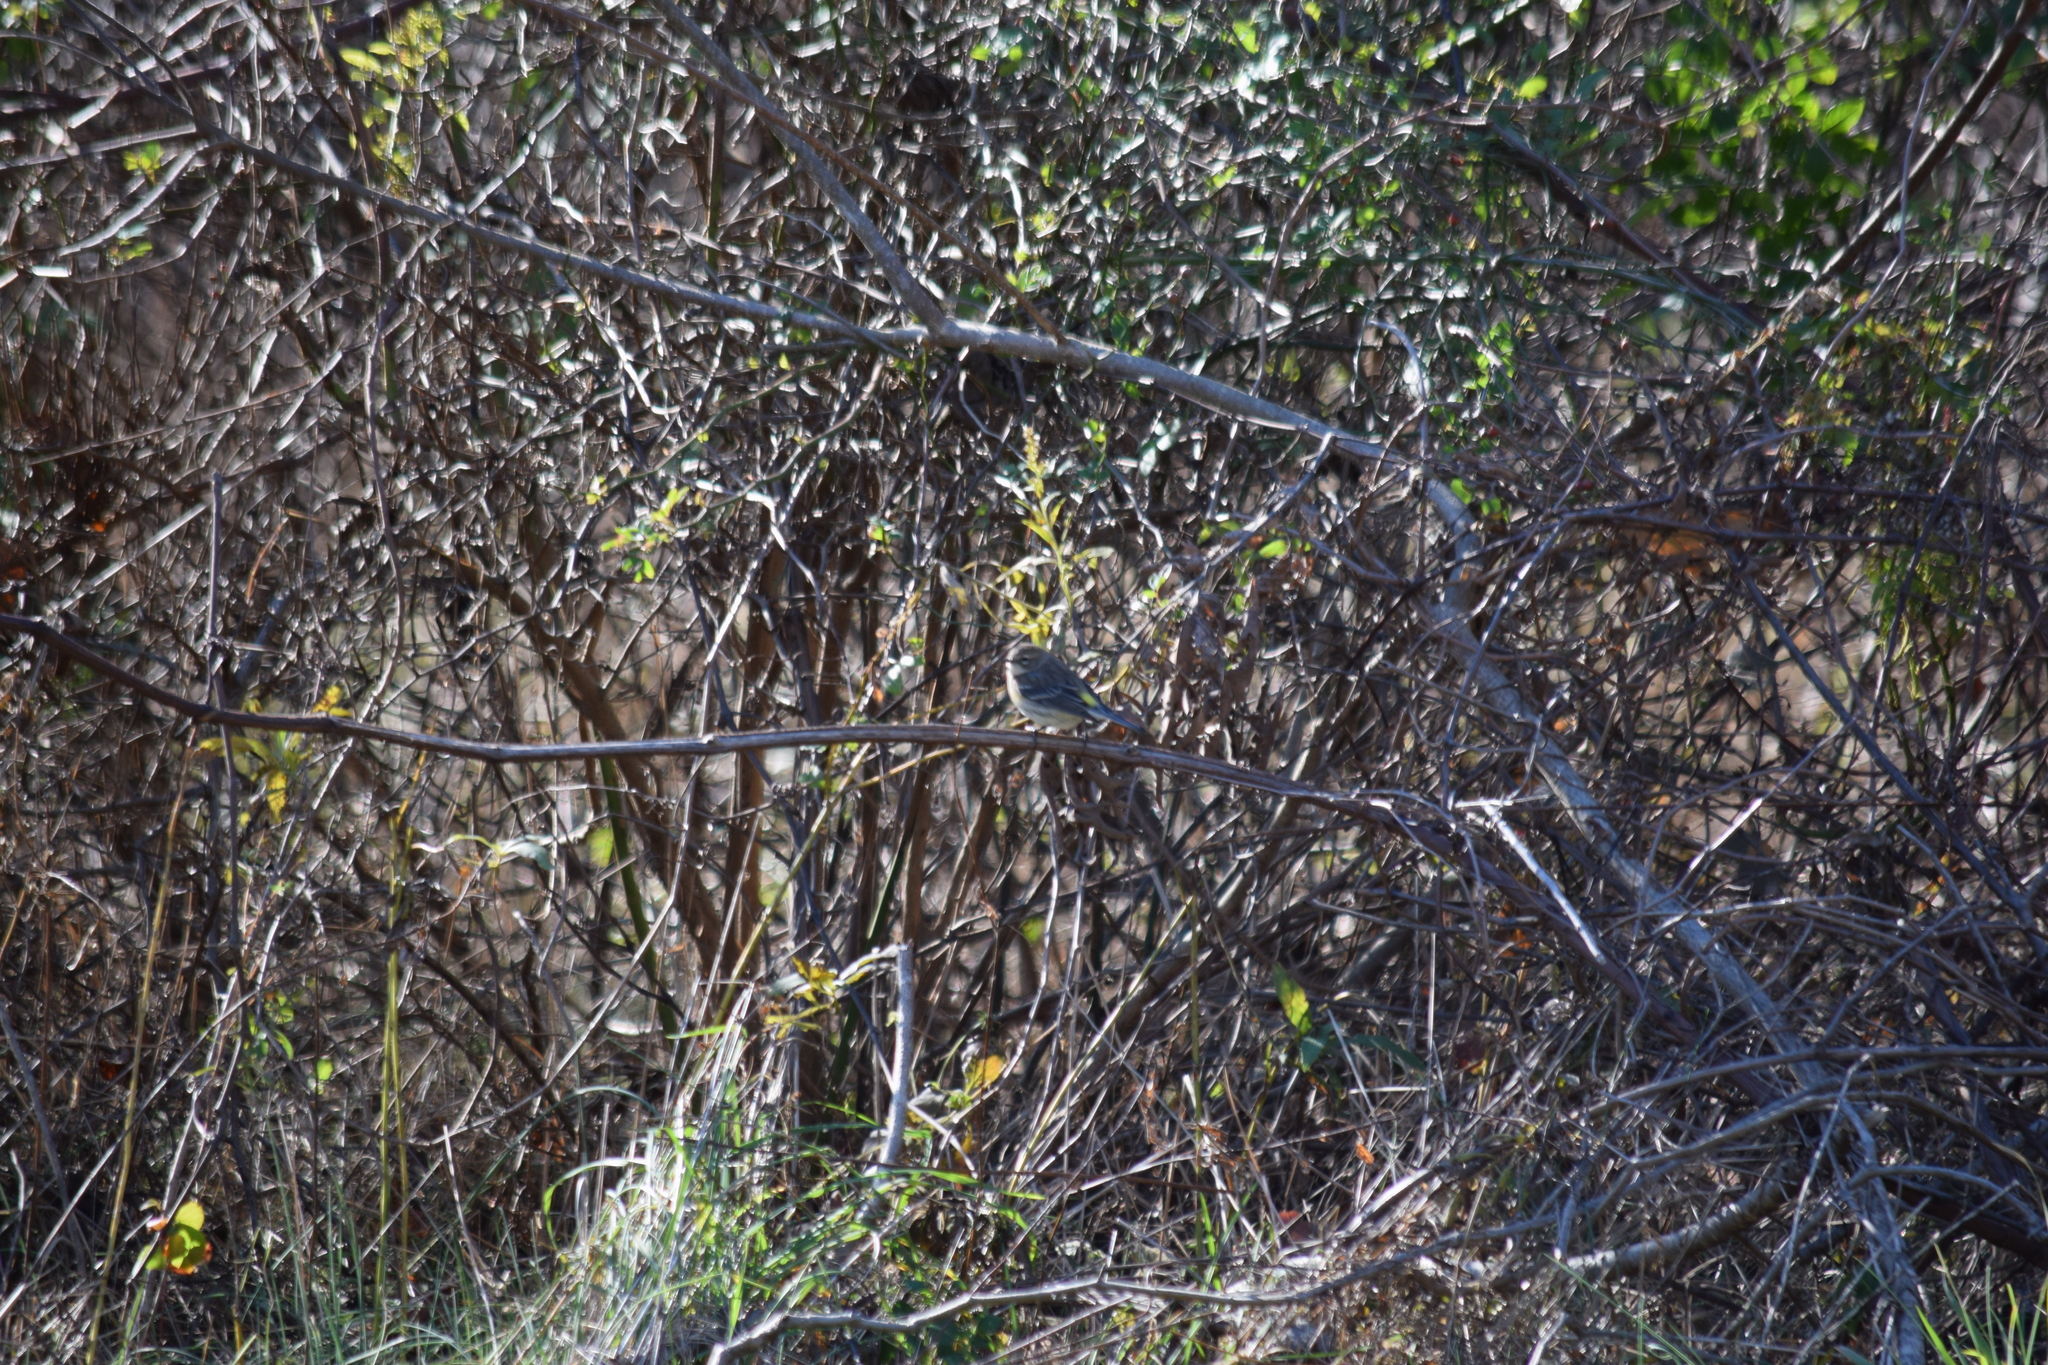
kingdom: Animalia
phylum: Chordata
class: Aves
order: Passeriformes
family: Parulidae
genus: Setophaga
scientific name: Setophaga coronata
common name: Myrtle warbler
